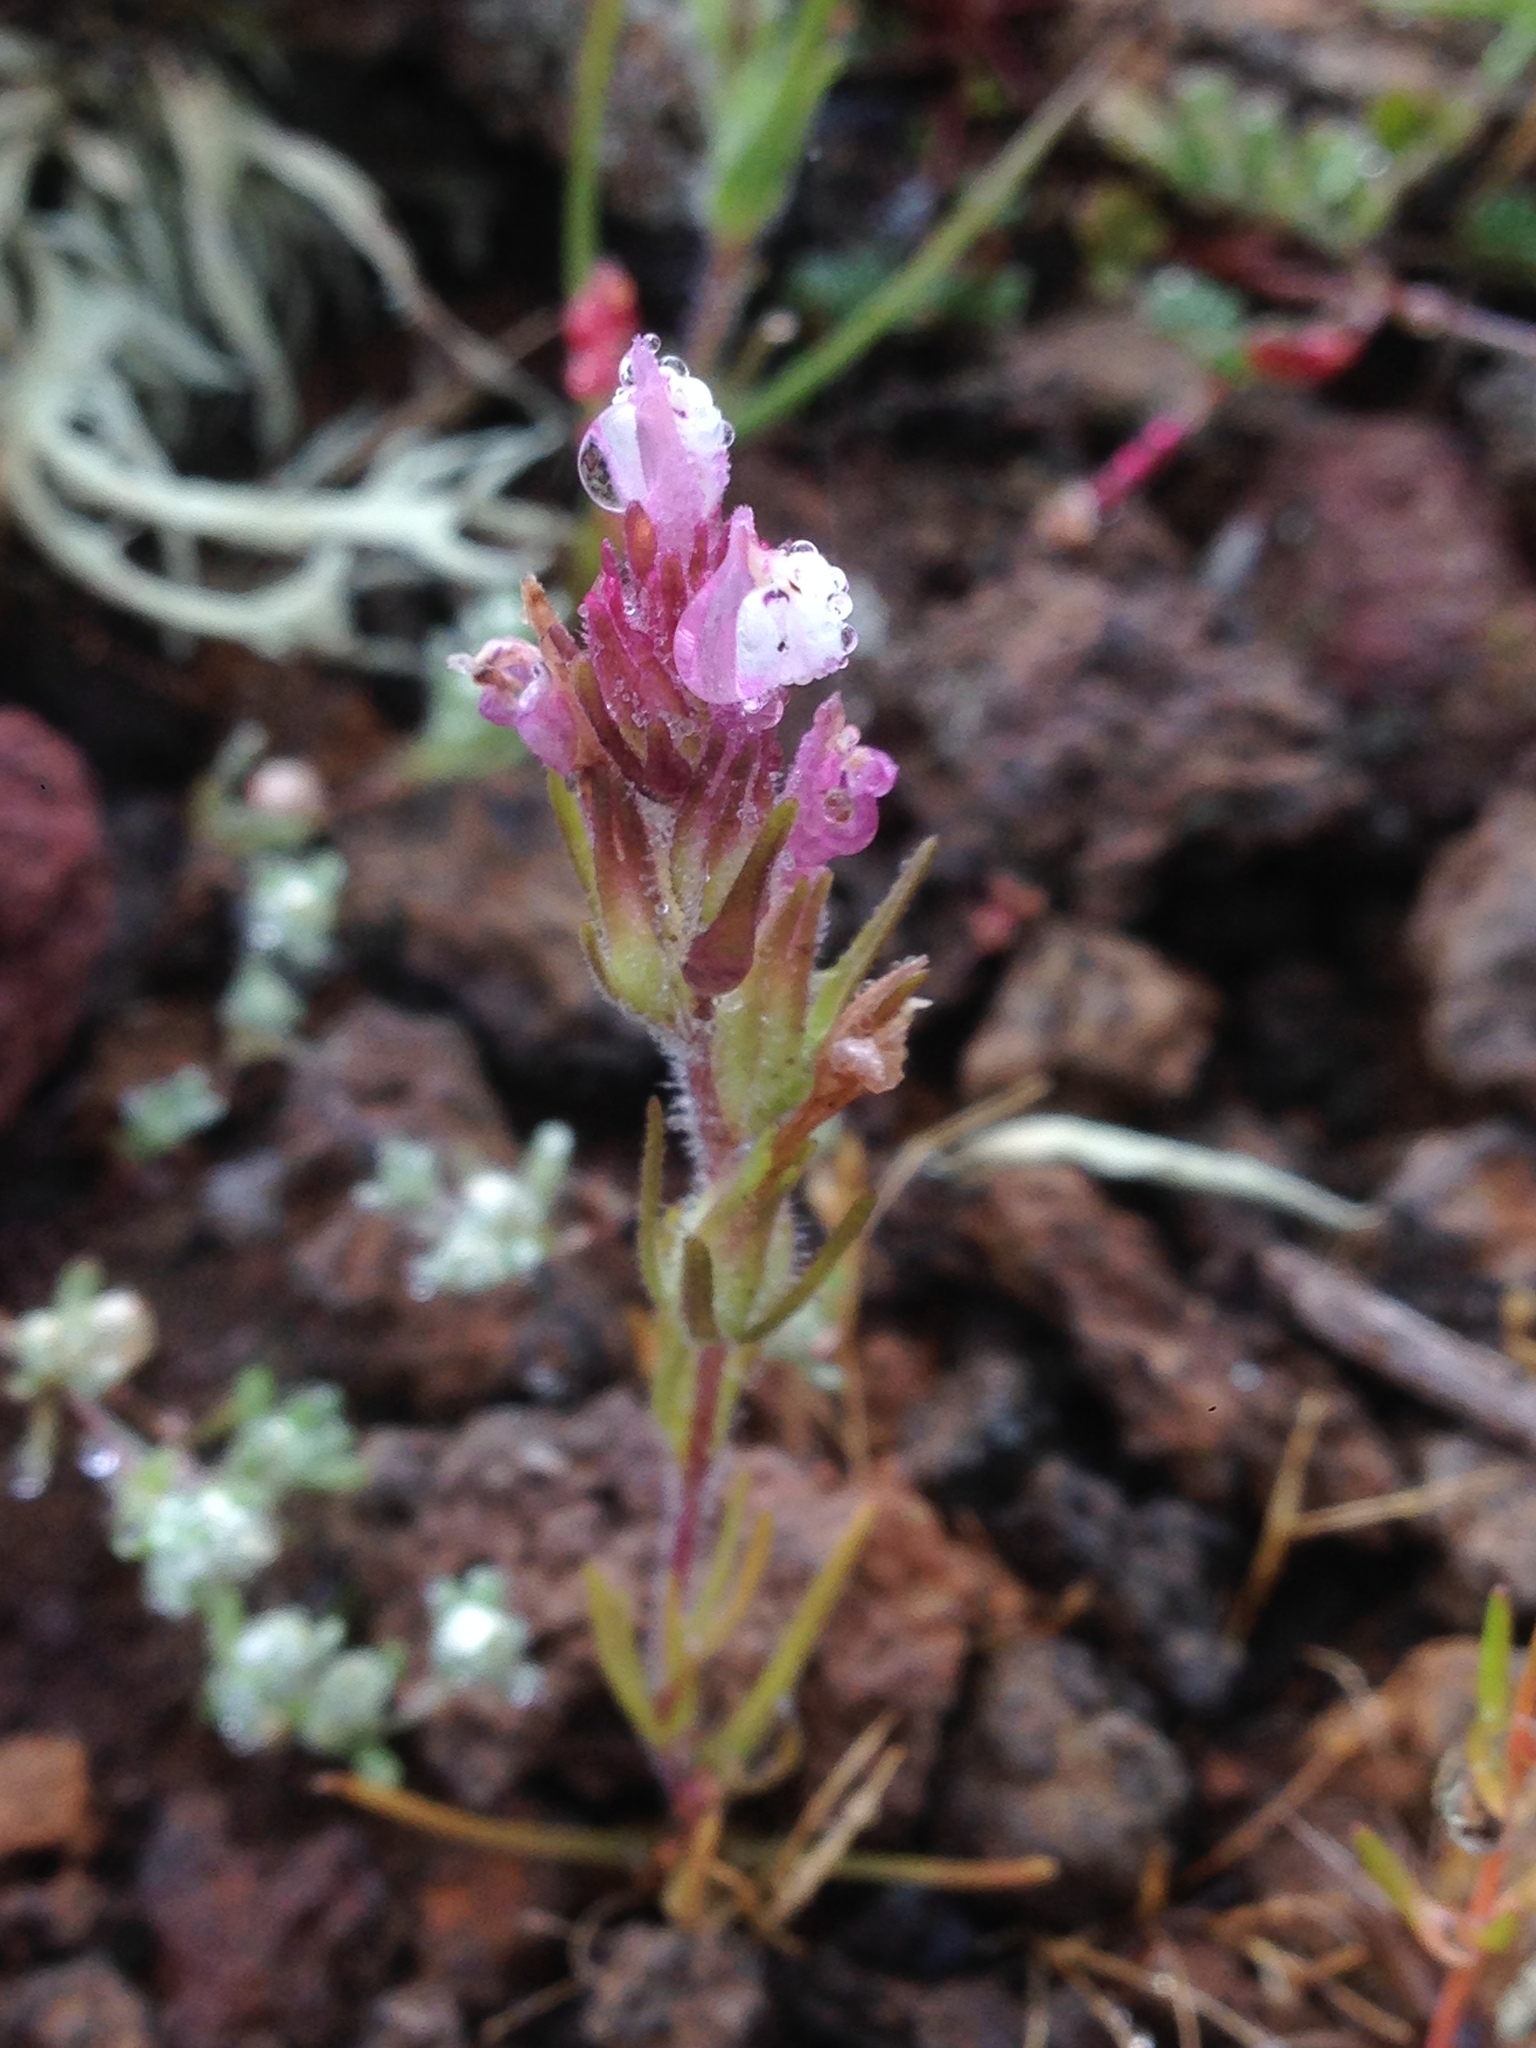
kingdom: Plantae
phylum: Tracheophyta
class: Magnoliopsida
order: Lamiales
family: Orobanchaceae
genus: Castilleja
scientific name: Castilleja densiflora
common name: Dense-flower indian paintbrush
